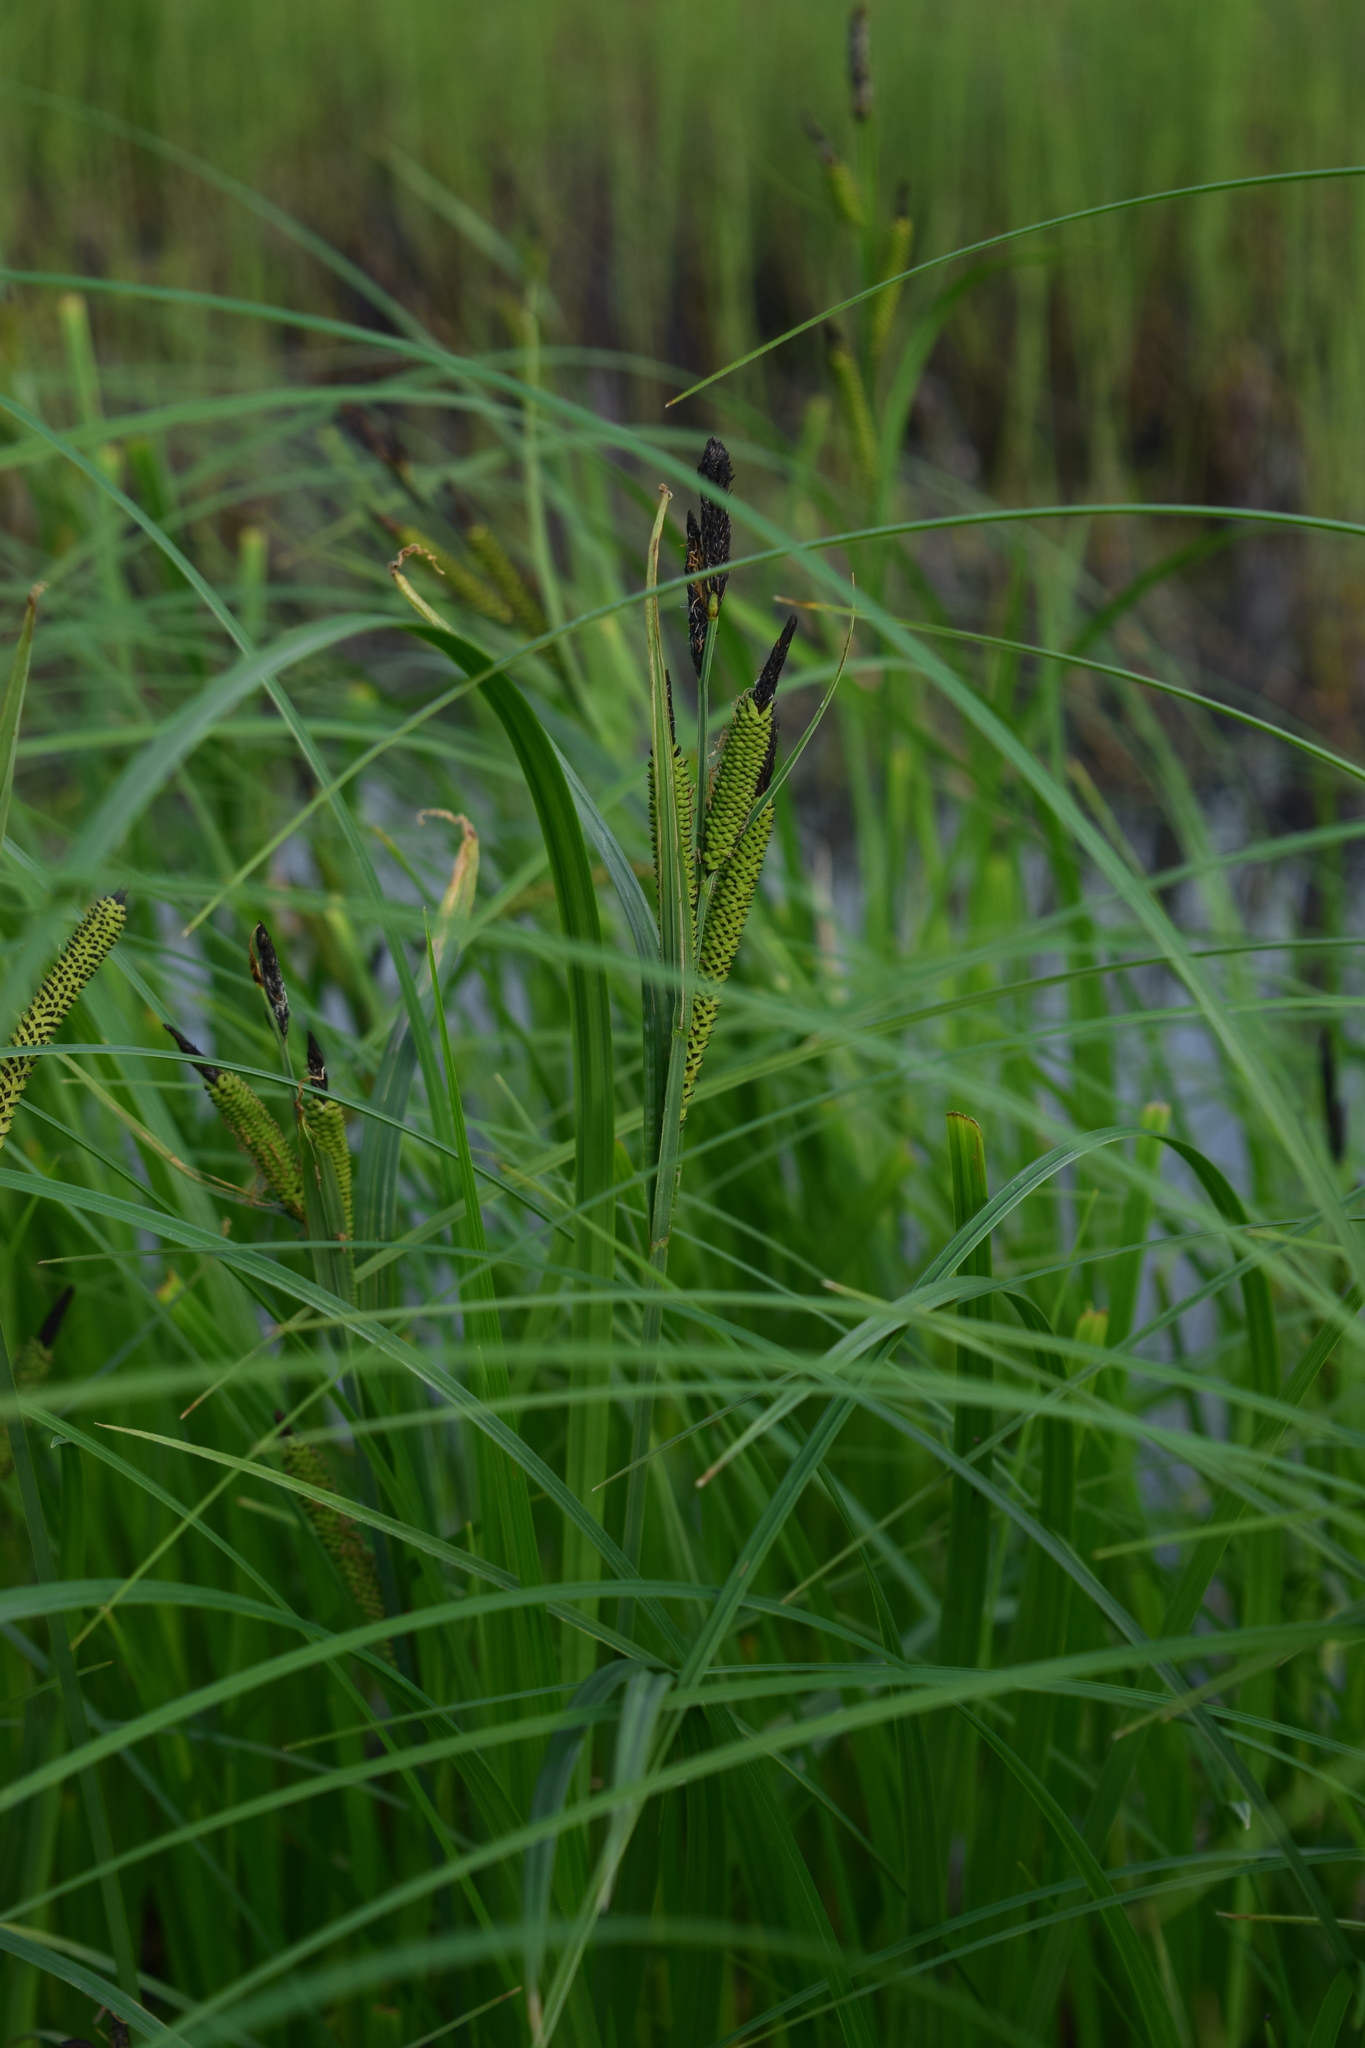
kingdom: Plantae
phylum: Tracheophyta
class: Liliopsida
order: Poales
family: Cyperaceae
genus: Carex
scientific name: Carex acuta
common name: Slender tufted-sedge
